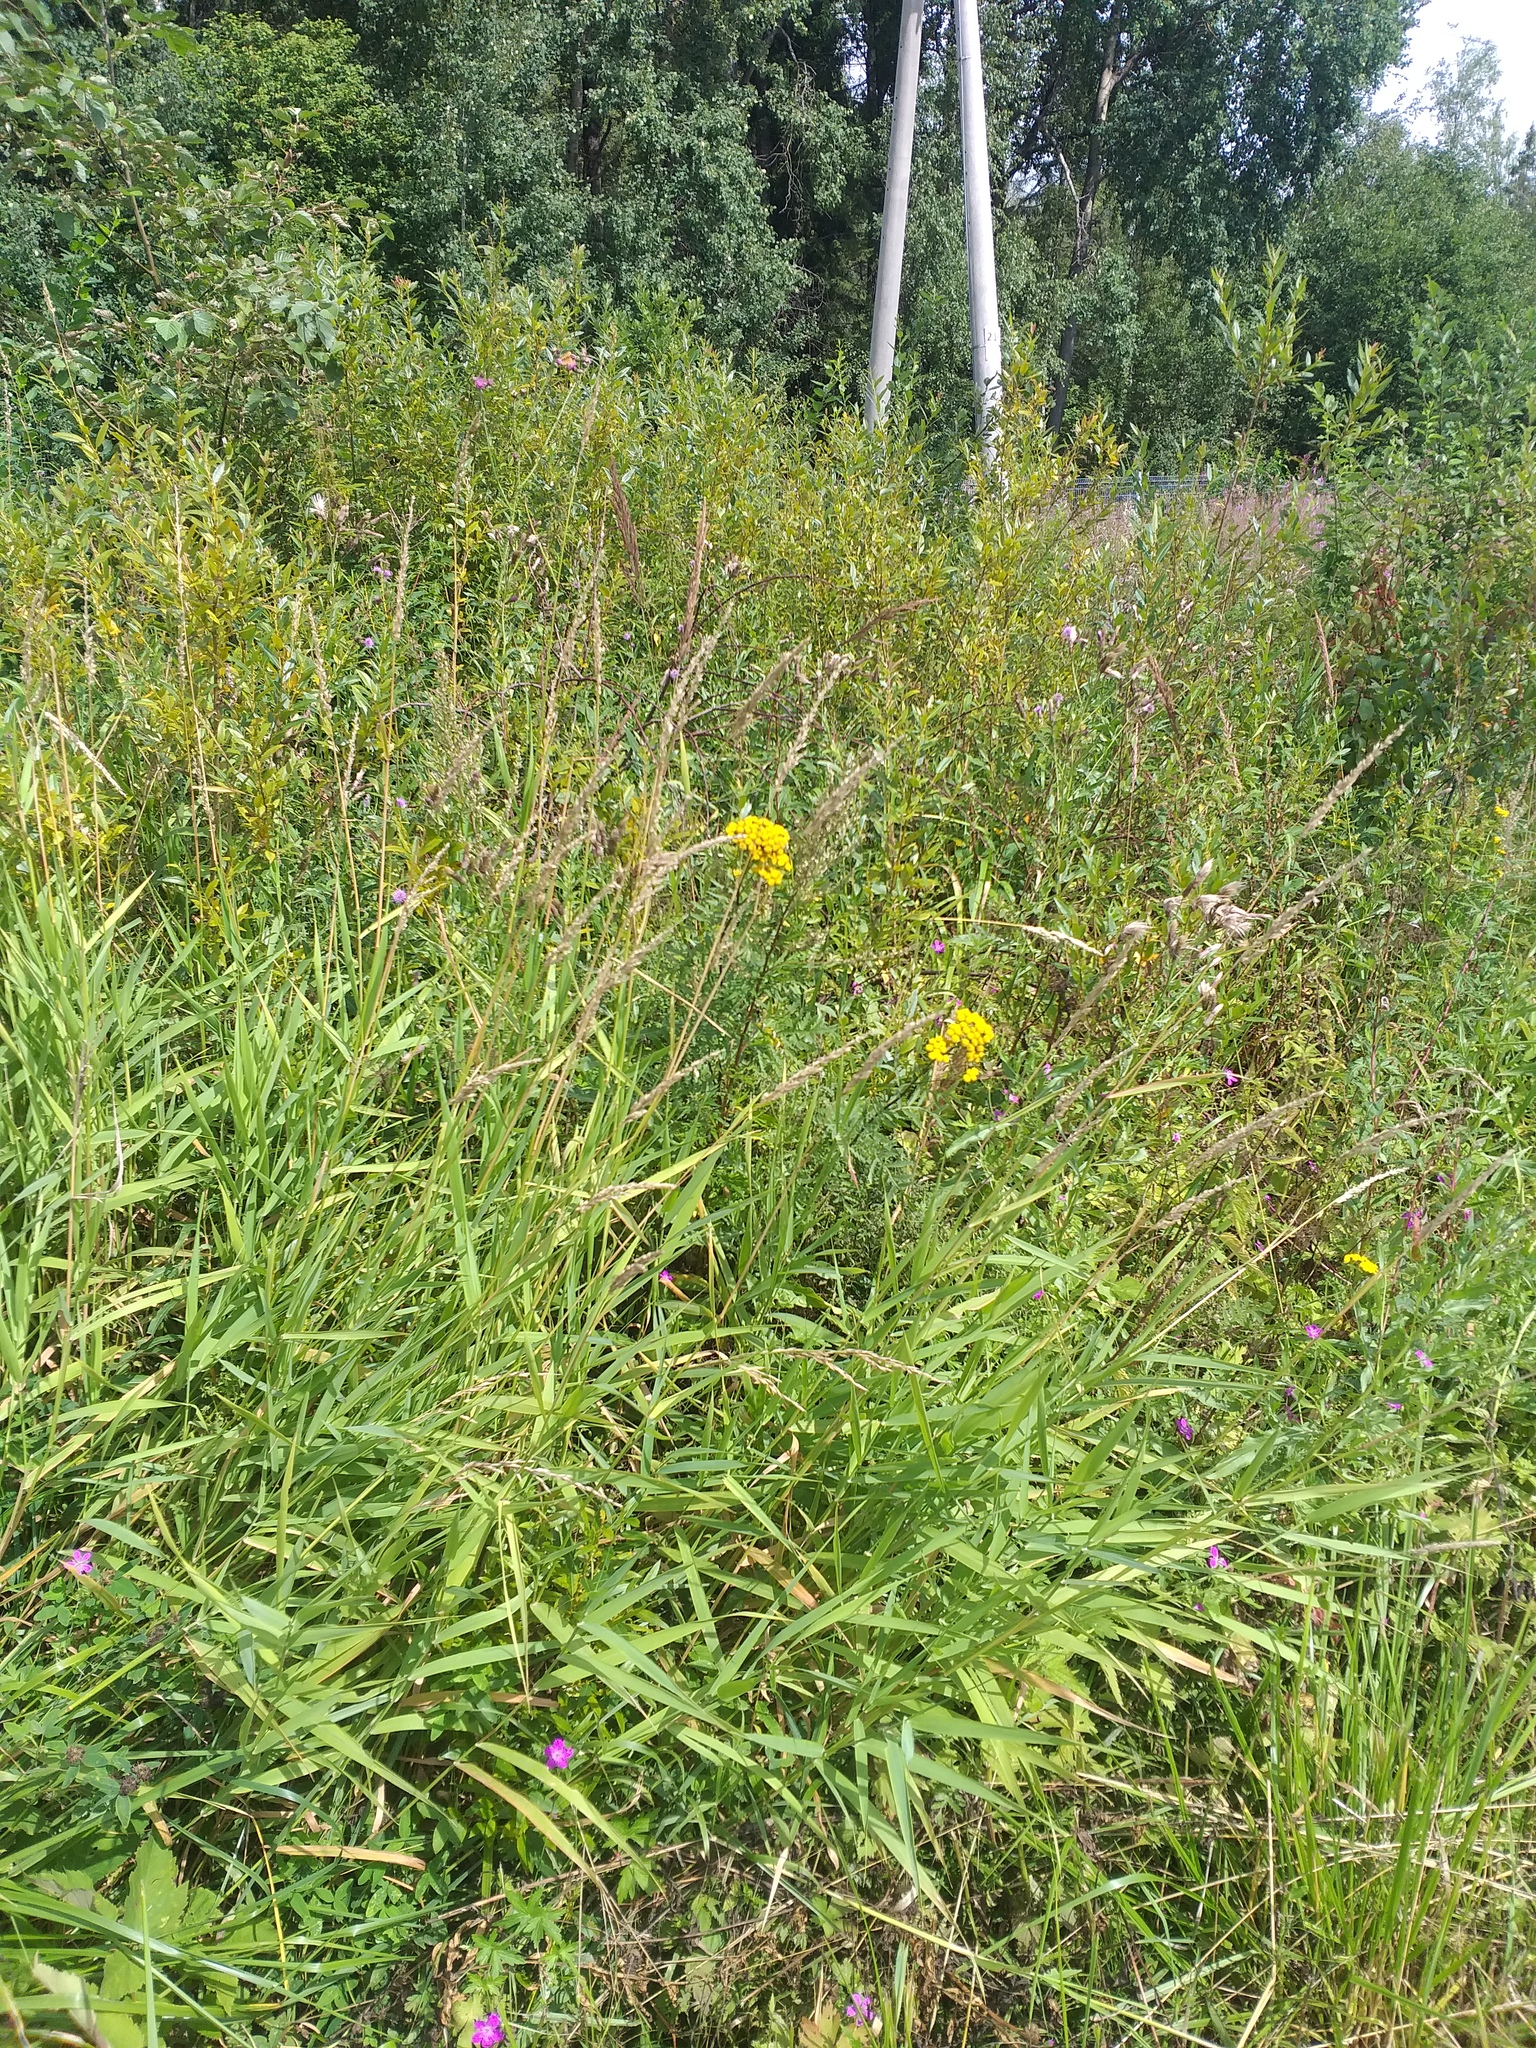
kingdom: Plantae
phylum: Tracheophyta
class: Liliopsida
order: Poales
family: Poaceae
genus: Phalaris
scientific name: Phalaris arundinacea
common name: Reed canary-grass
